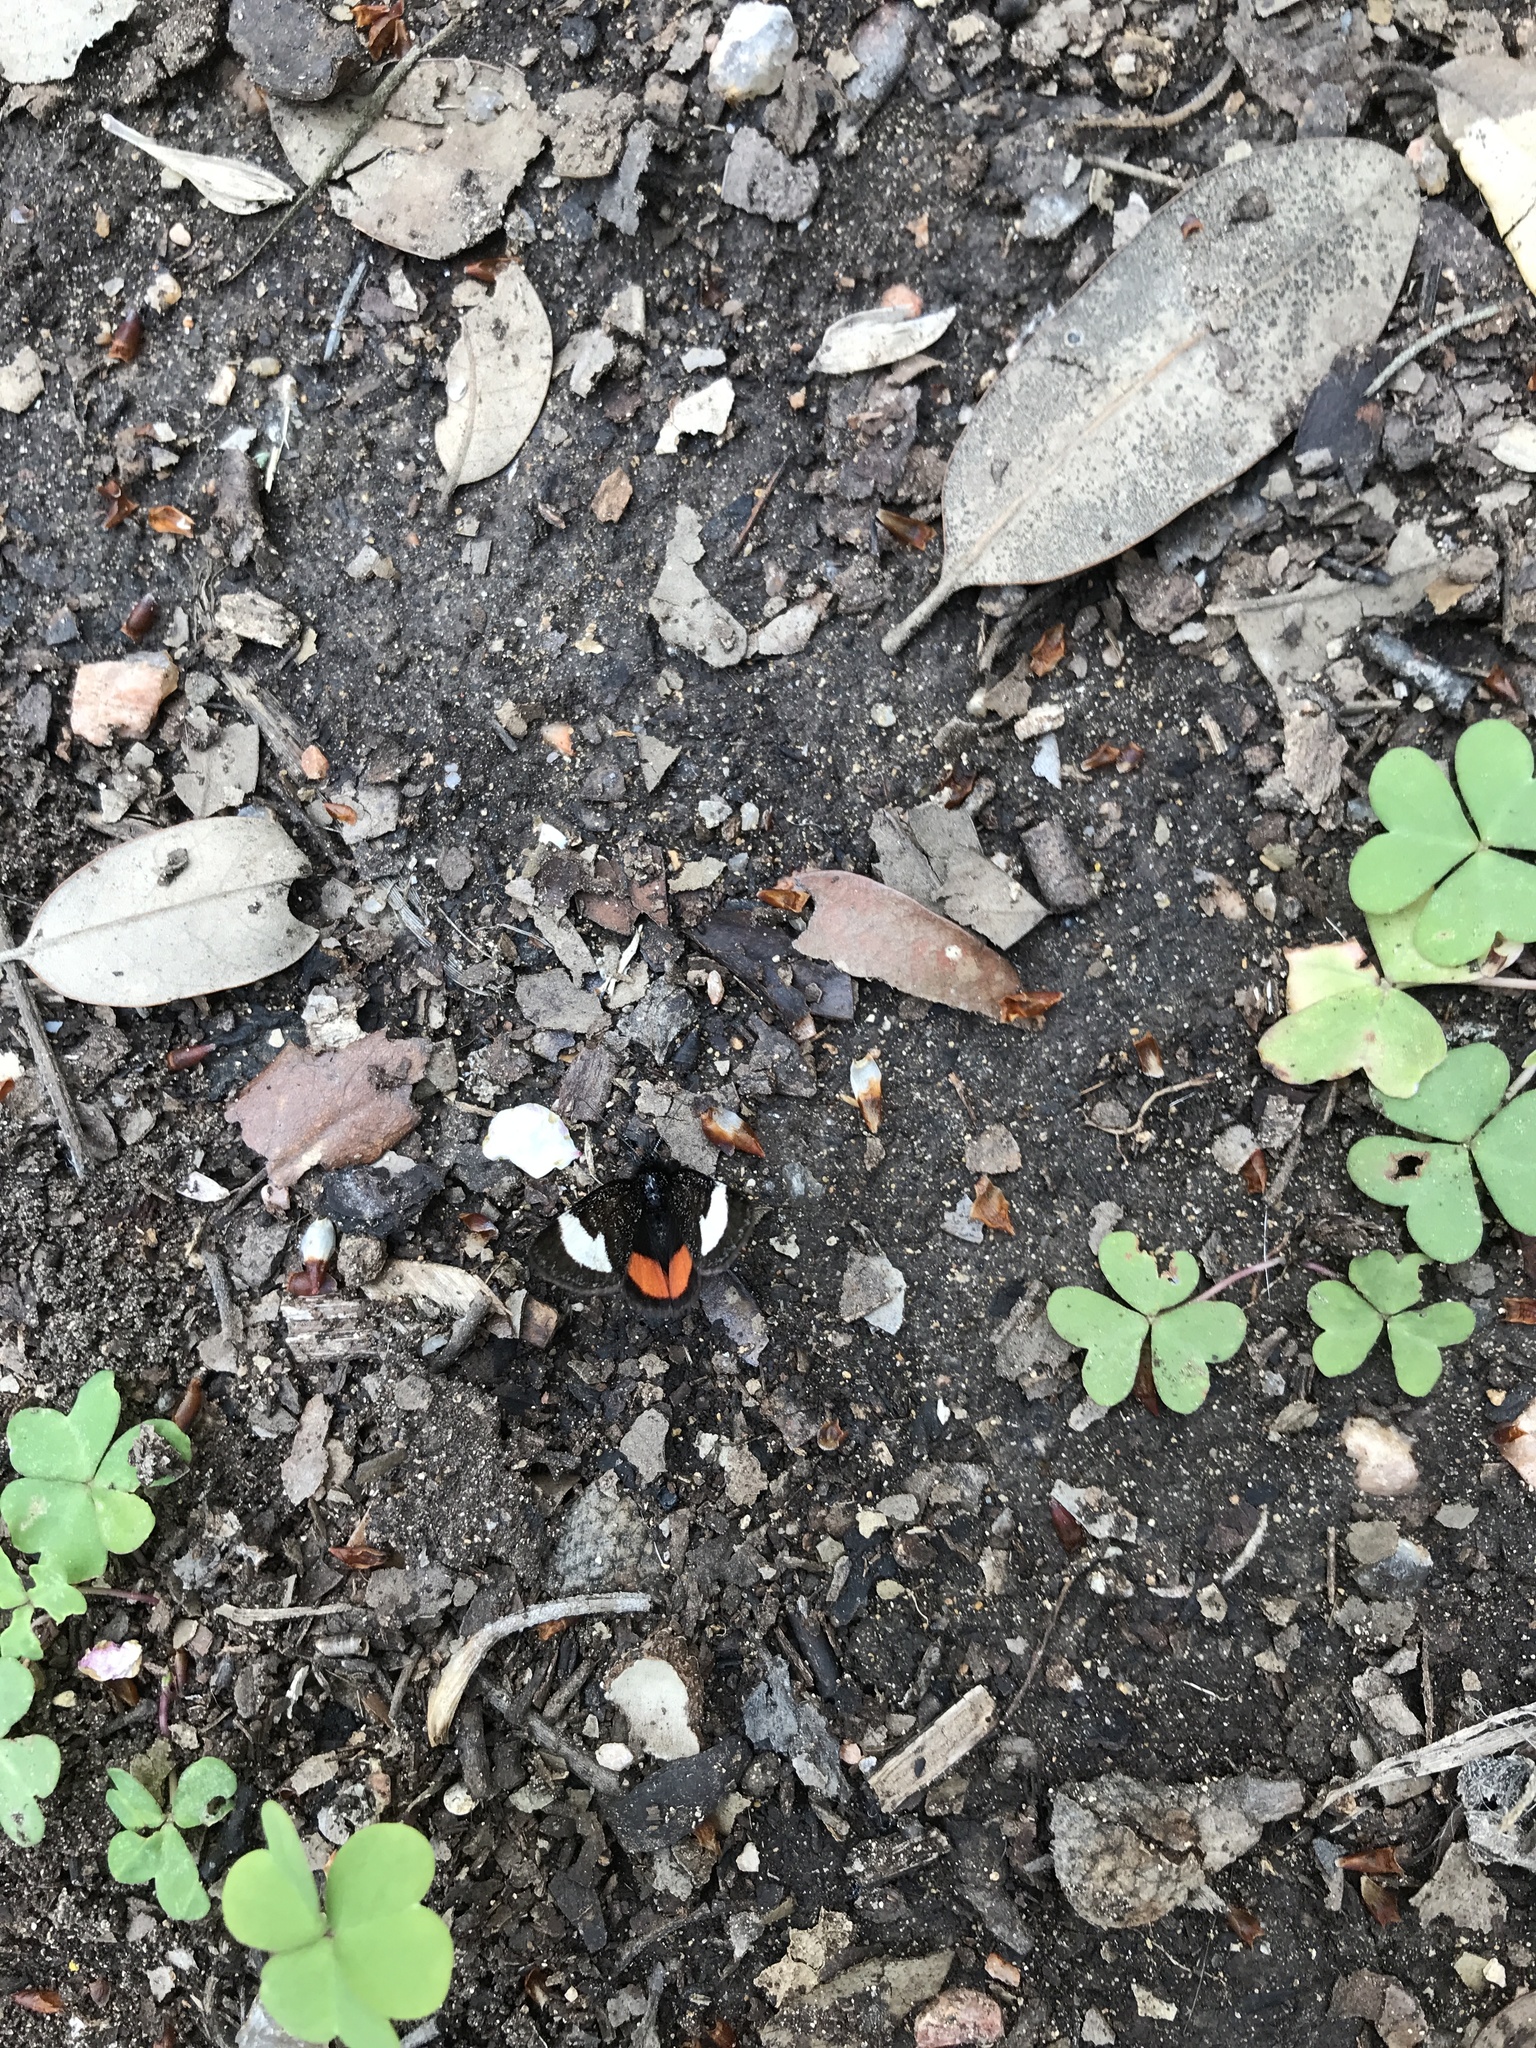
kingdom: Animalia
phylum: Arthropoda
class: Insecta
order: Lepidoptera
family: Noctuidae
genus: Psychomorpha
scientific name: Psychomorpha epimenis
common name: Grapevine epimenis moth
